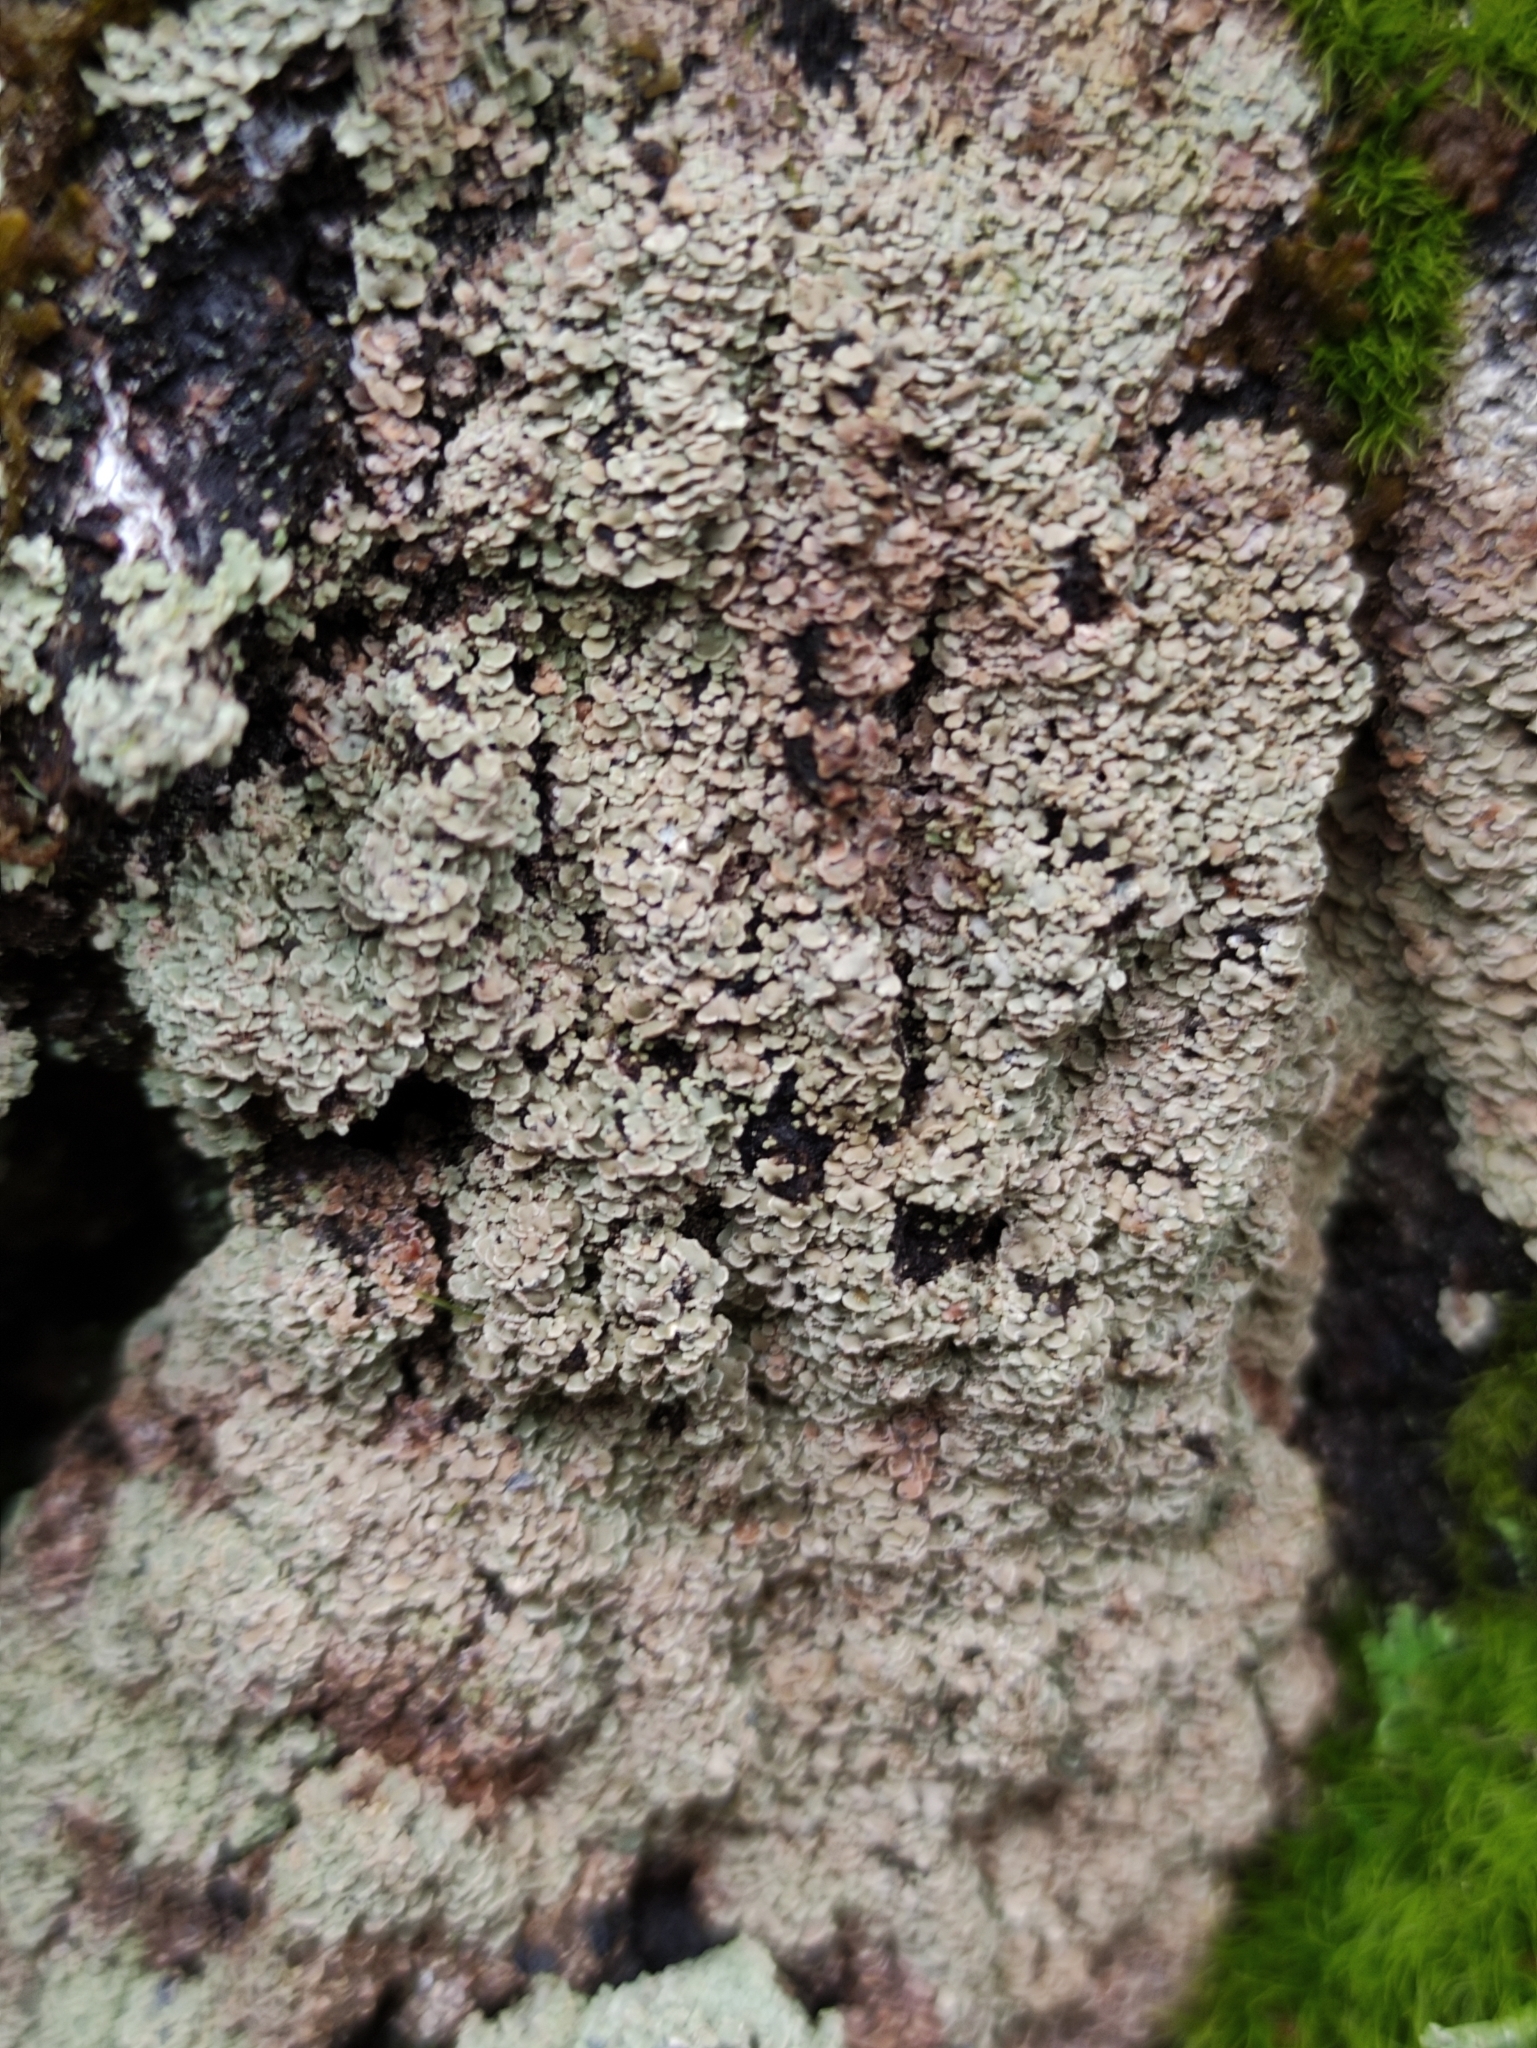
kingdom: Fungi
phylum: Ascomycota
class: Lecanoromycetes
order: Umbilicariales
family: Ophioparmaceae
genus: Hypocenomyce
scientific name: Hypocenomyce scalaris
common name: Common clam lichen
